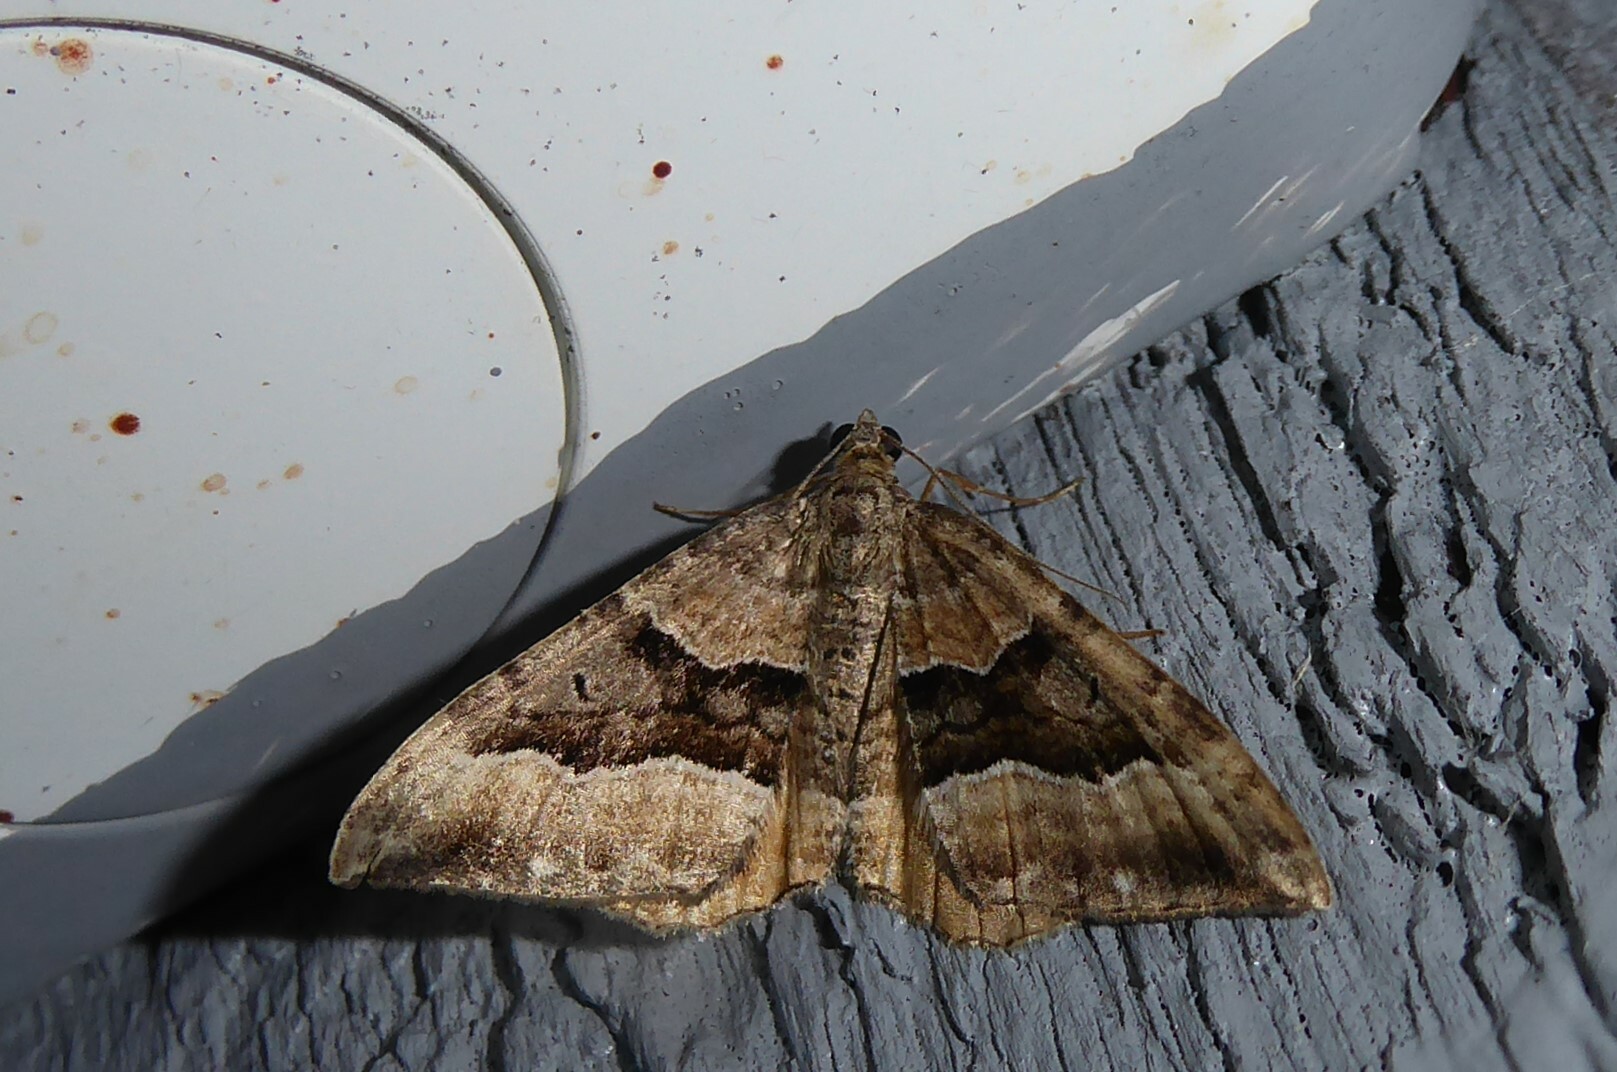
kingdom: Animalia
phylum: Arthropoda
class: Insecta
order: Lepidoptera
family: Geometridae
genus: Hydriomena
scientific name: Hydriomena deltoidata
